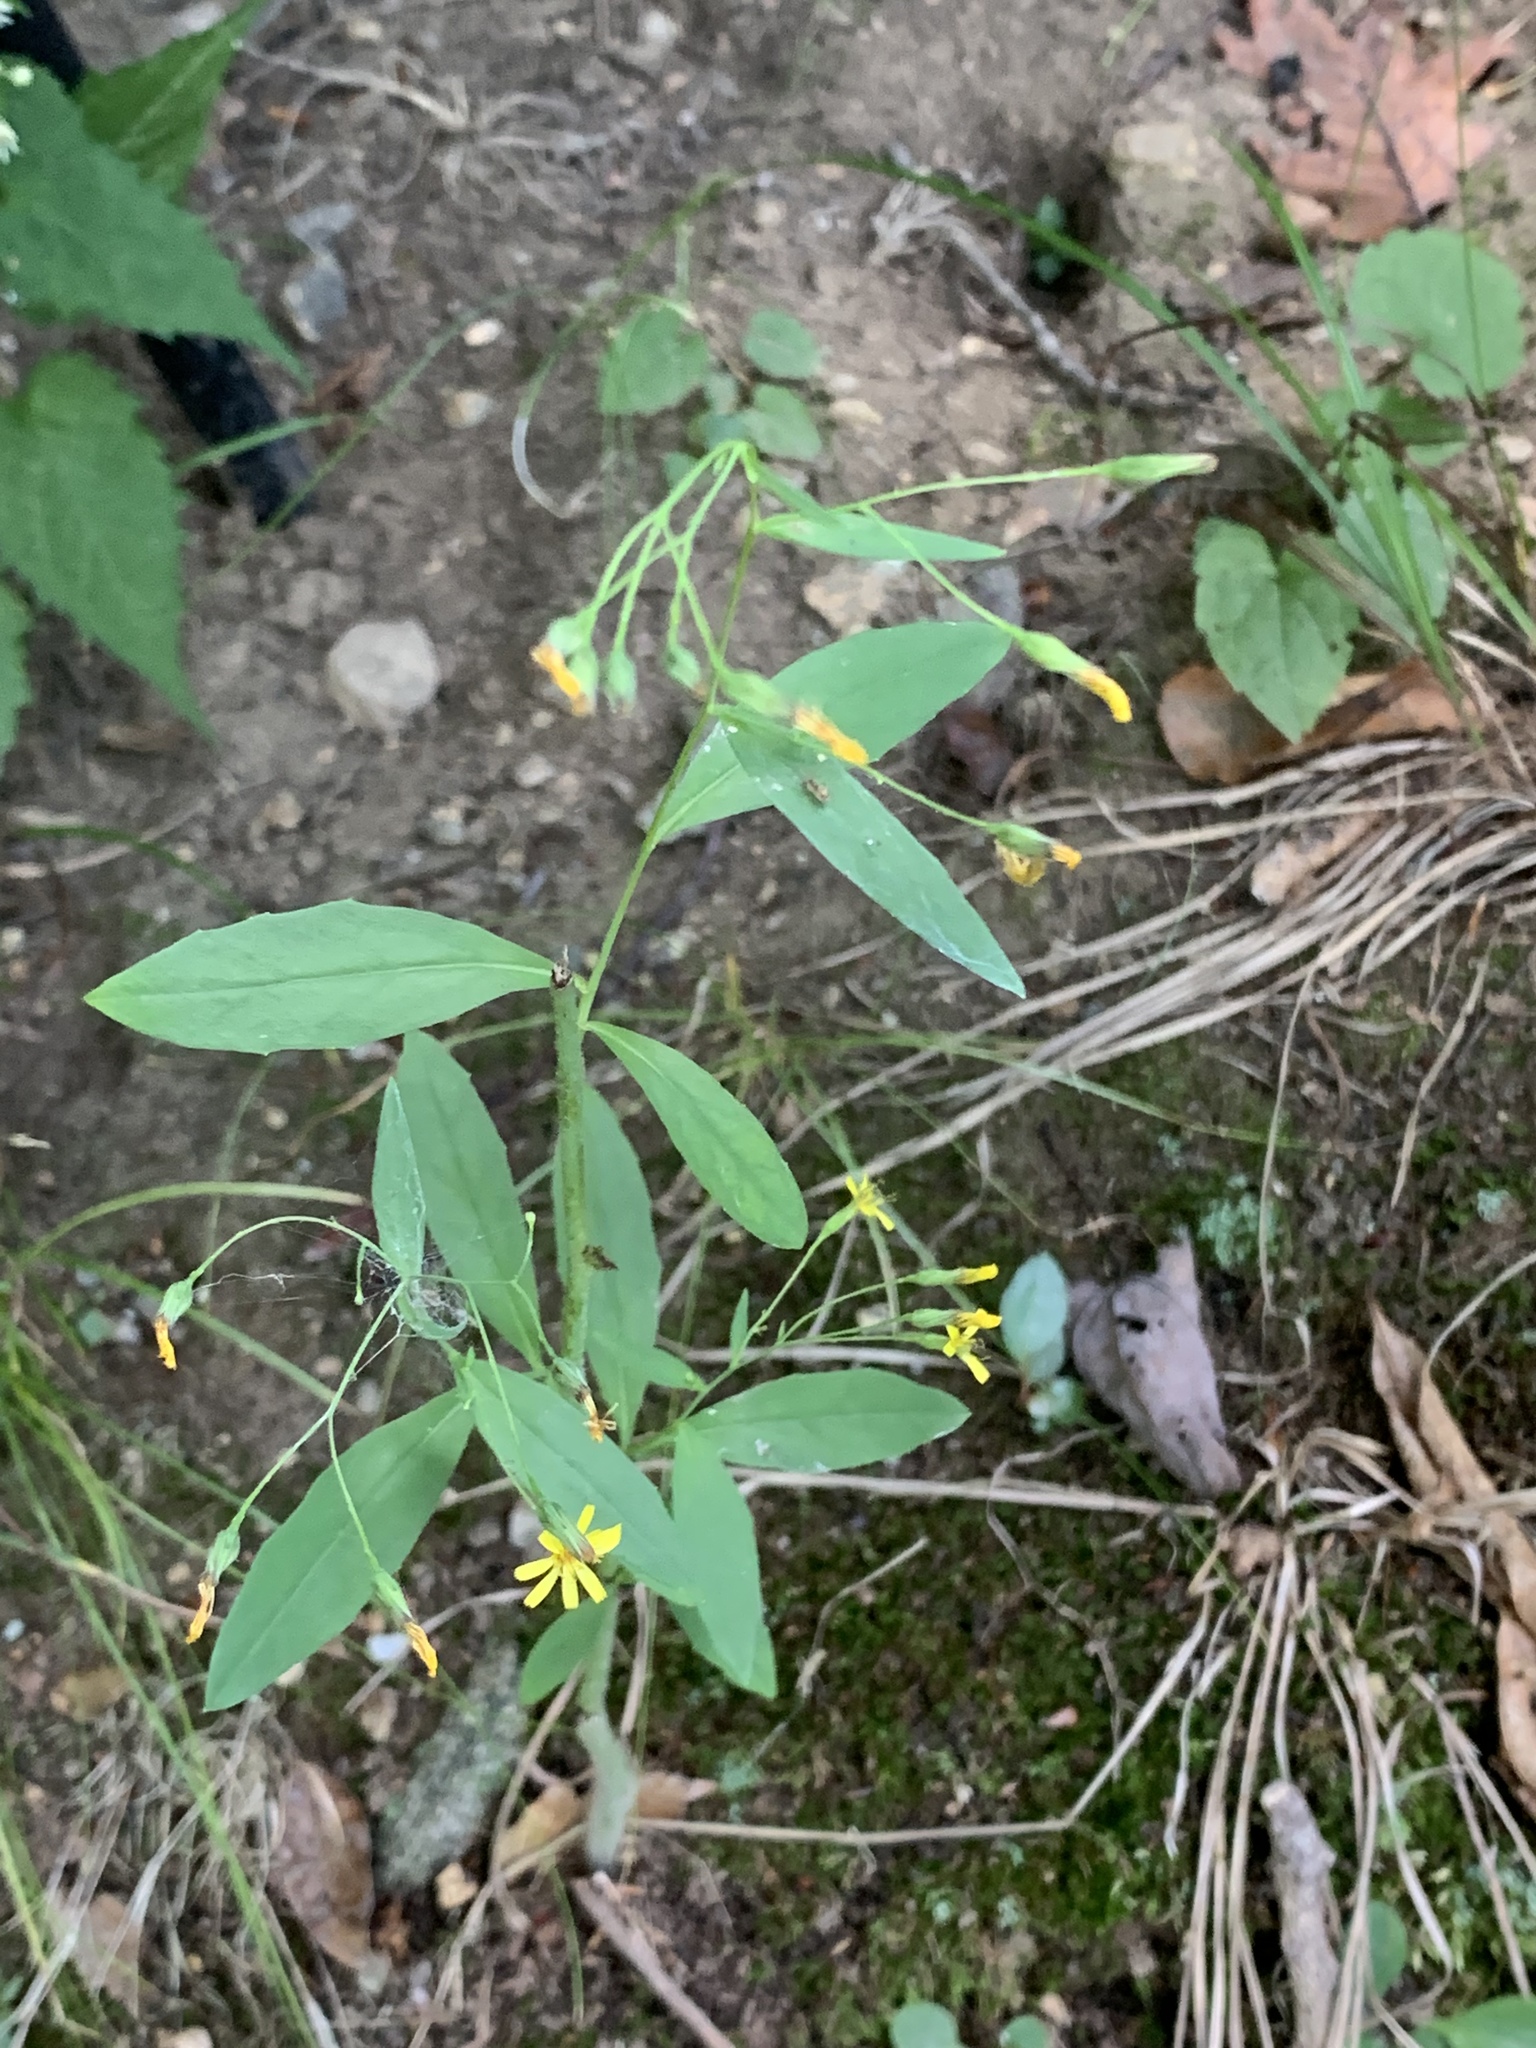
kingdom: Plantae
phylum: Tracheophyta
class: Magnoliopsida
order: Asterales
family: Asteraceae
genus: Hieracium
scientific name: Hieracium paniculatum
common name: Allegheny hawkweed
